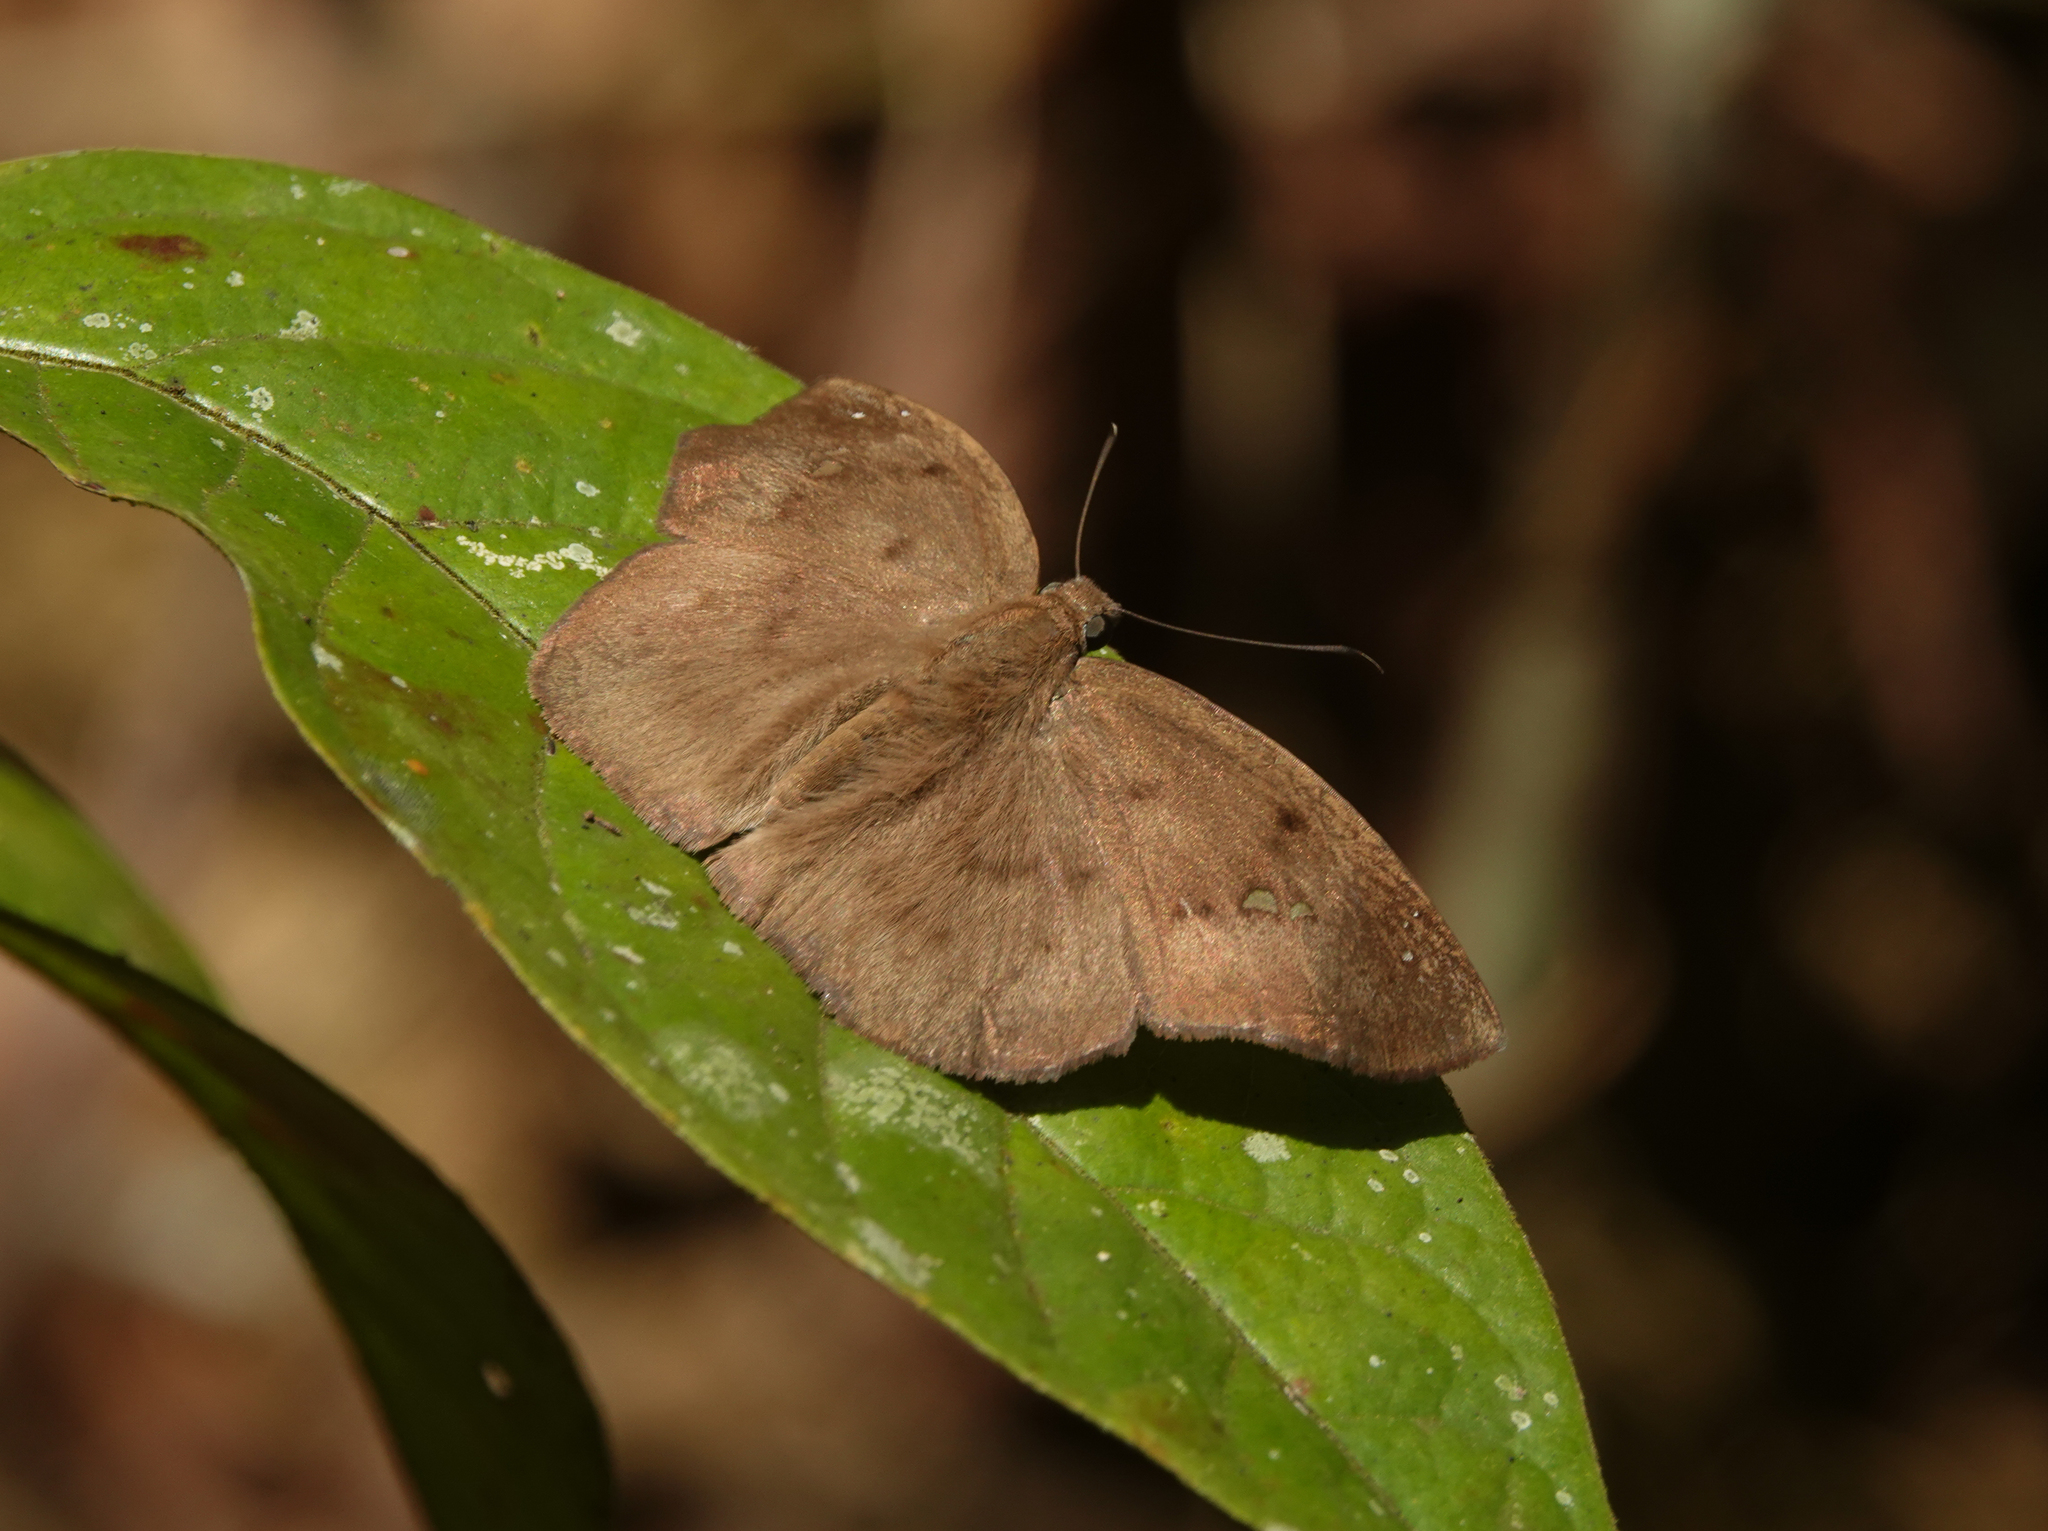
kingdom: Animalia
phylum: Arthropoda
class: Insecta
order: Lepidoptera
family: Hesperiidae
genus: Tagiades
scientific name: Tagiades japetus
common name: Pied flat
